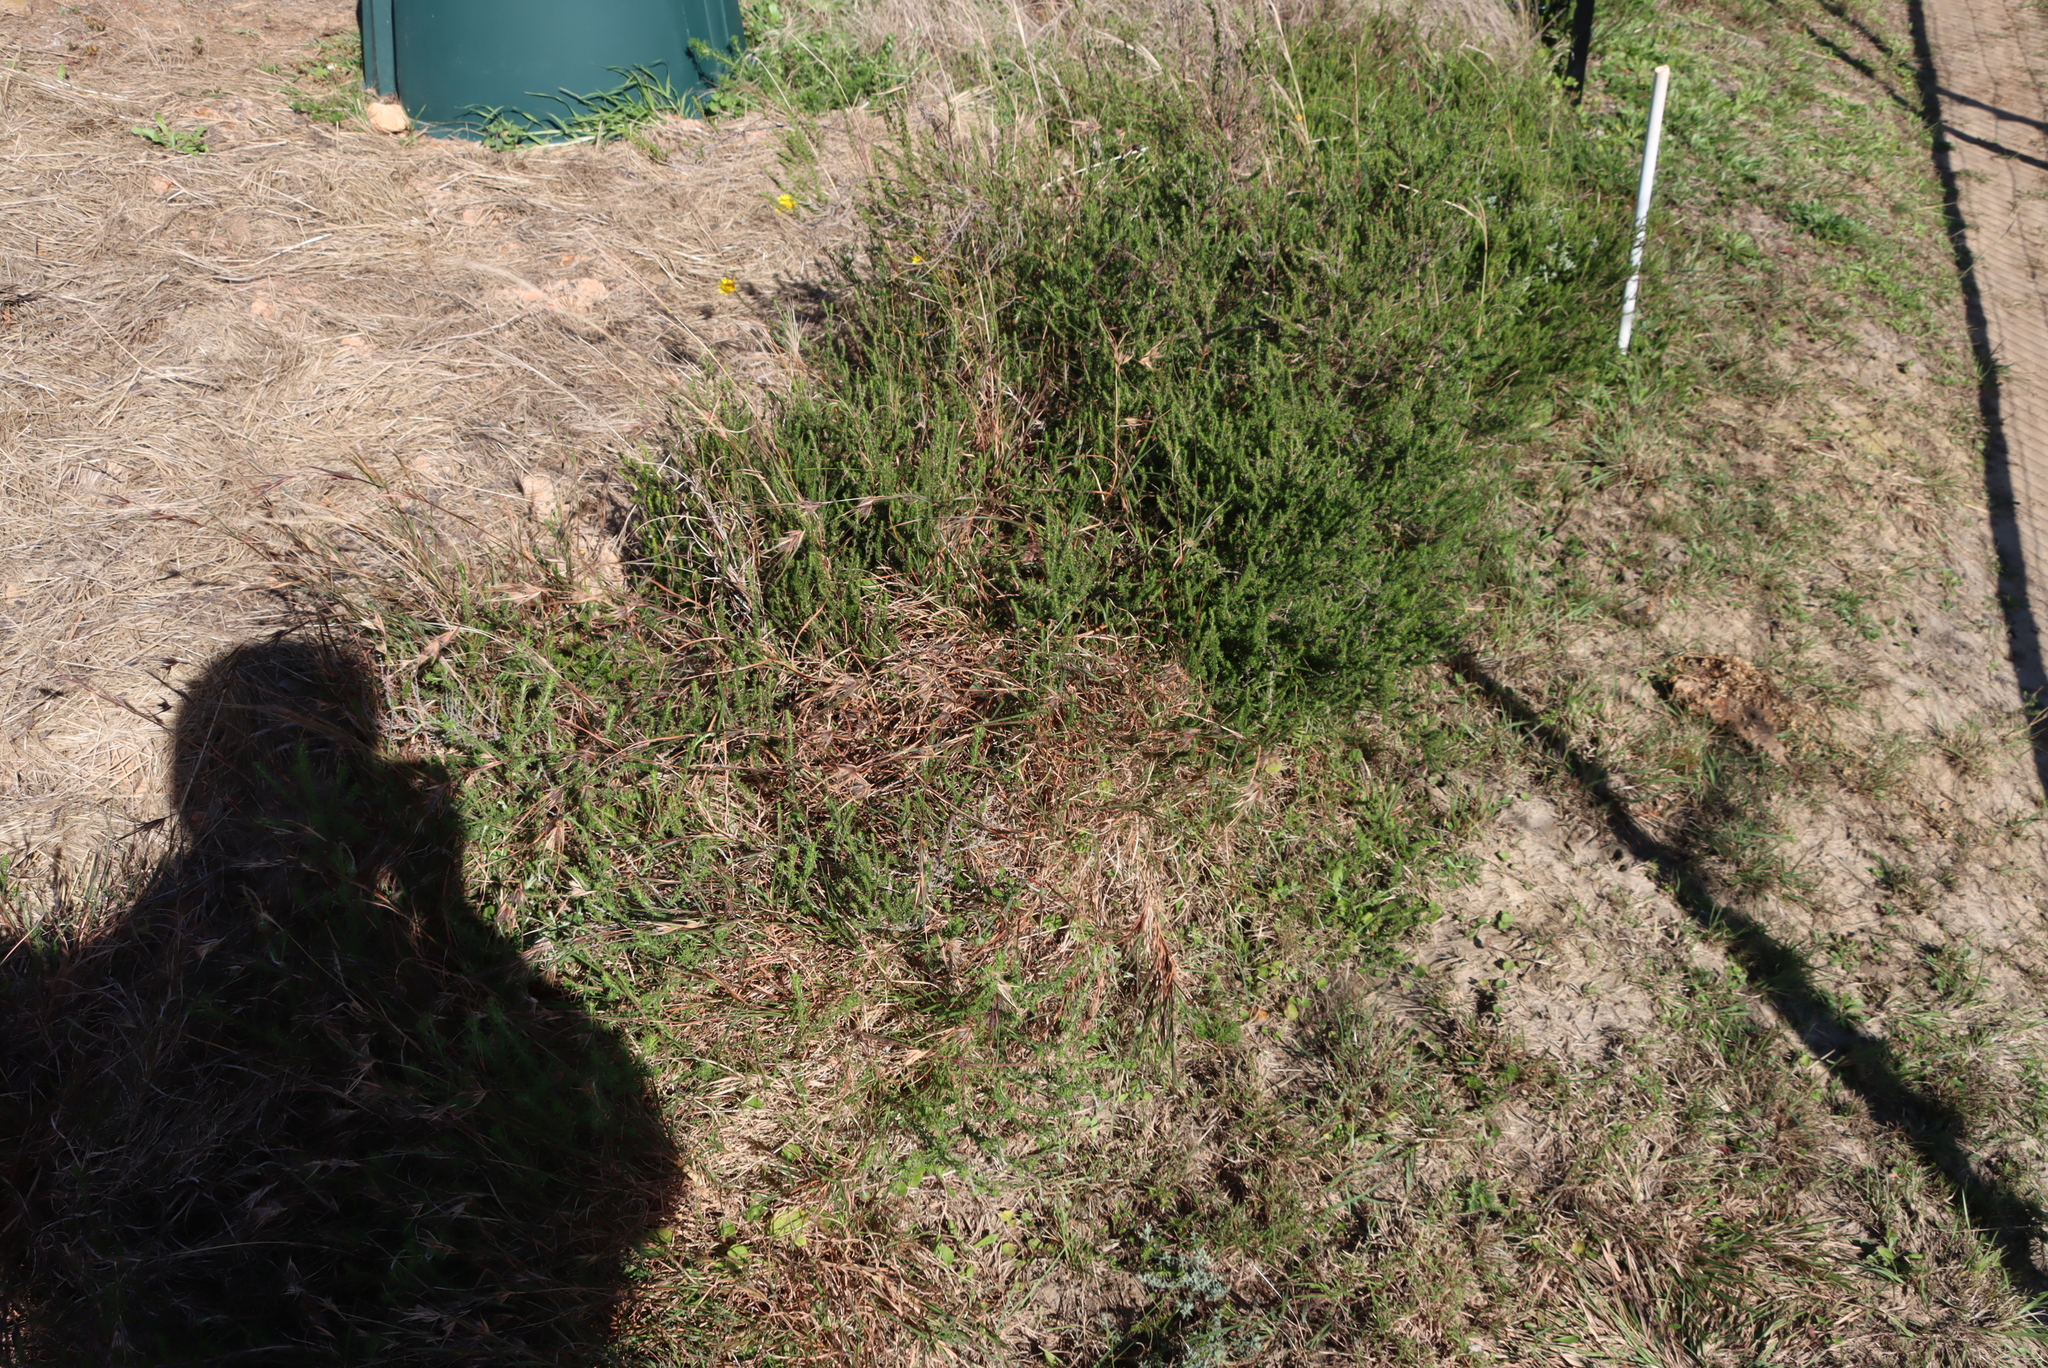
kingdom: Plantae
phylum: Tracheophyta
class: Liliopsida
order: Poales
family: Poaceae
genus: Themeda
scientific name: Themeda triandra
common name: Kangaroo grass
